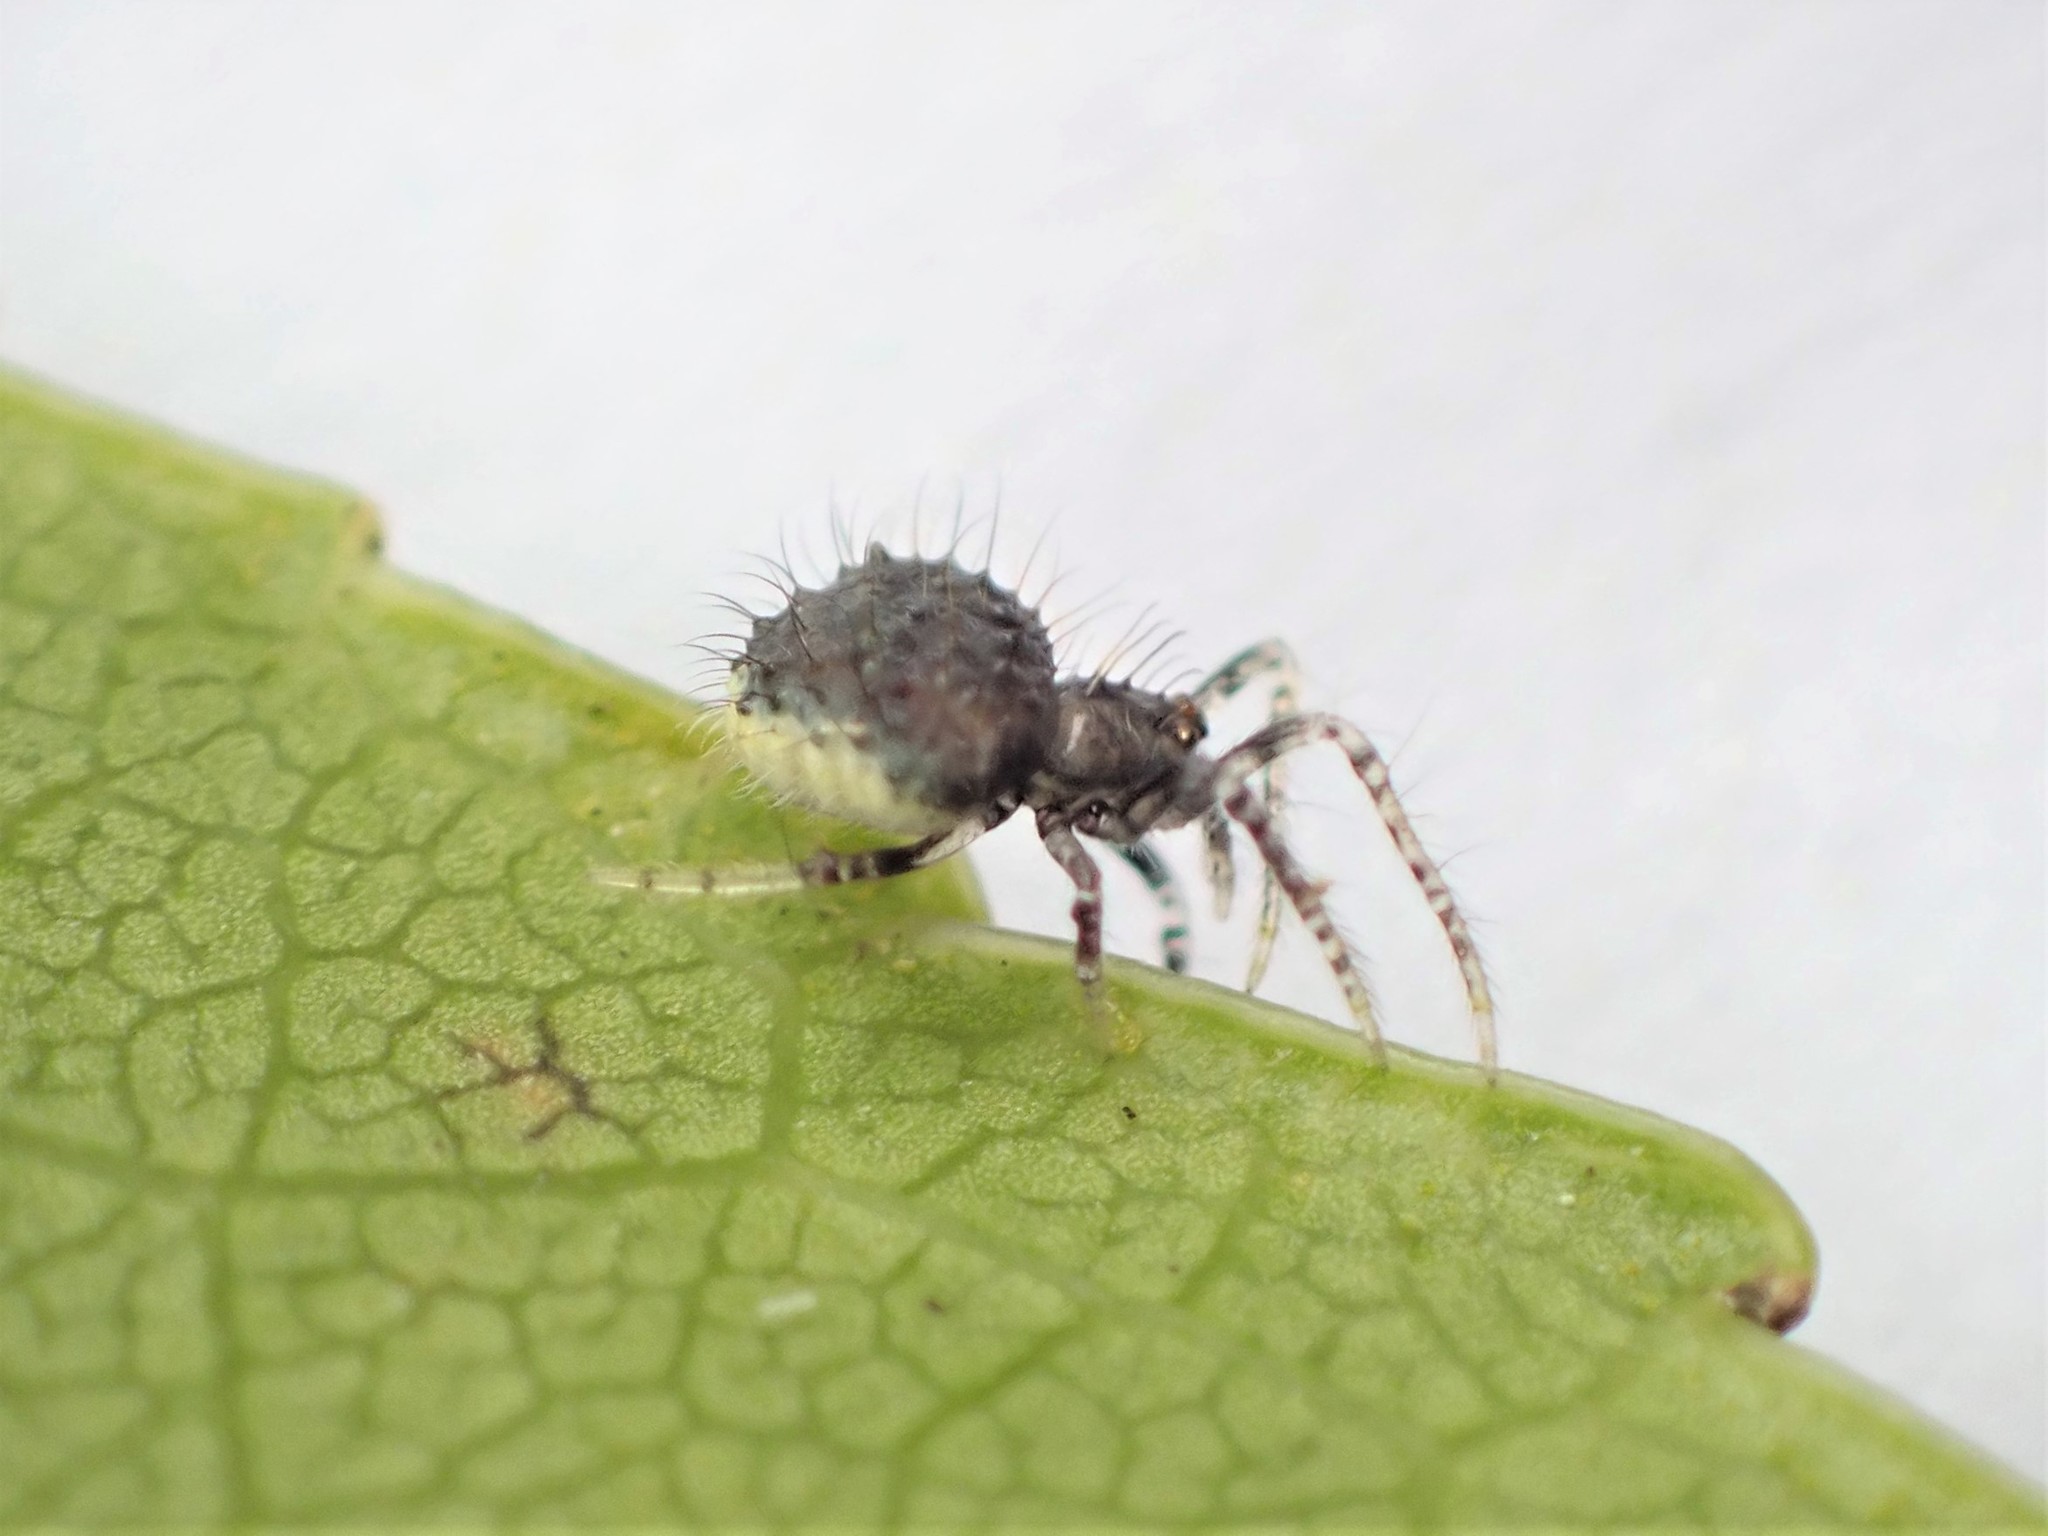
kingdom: Animalia
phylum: Arthropoda
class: Arachnida
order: Araneae
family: Araneidae
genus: Poecilopachys
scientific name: Poecilopachys australasia
